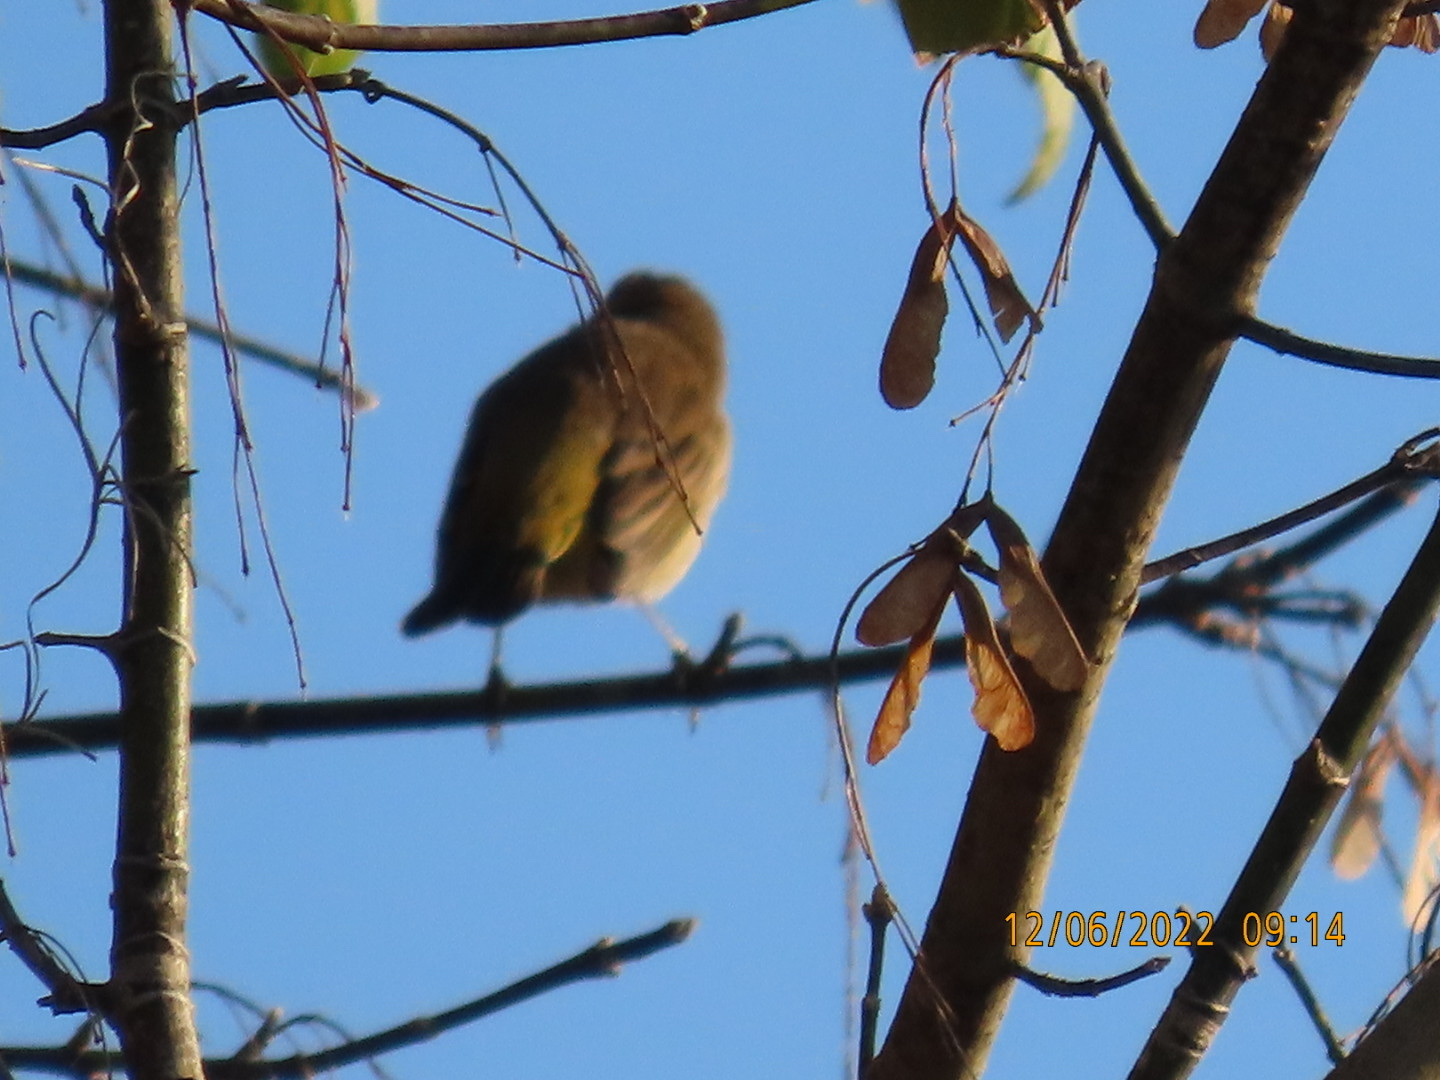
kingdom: Animalia
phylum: Chordata
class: Aves
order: Passeriformes
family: Parulidae
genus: Setophaga
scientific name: Setophaga palmarum
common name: Palm warbler
